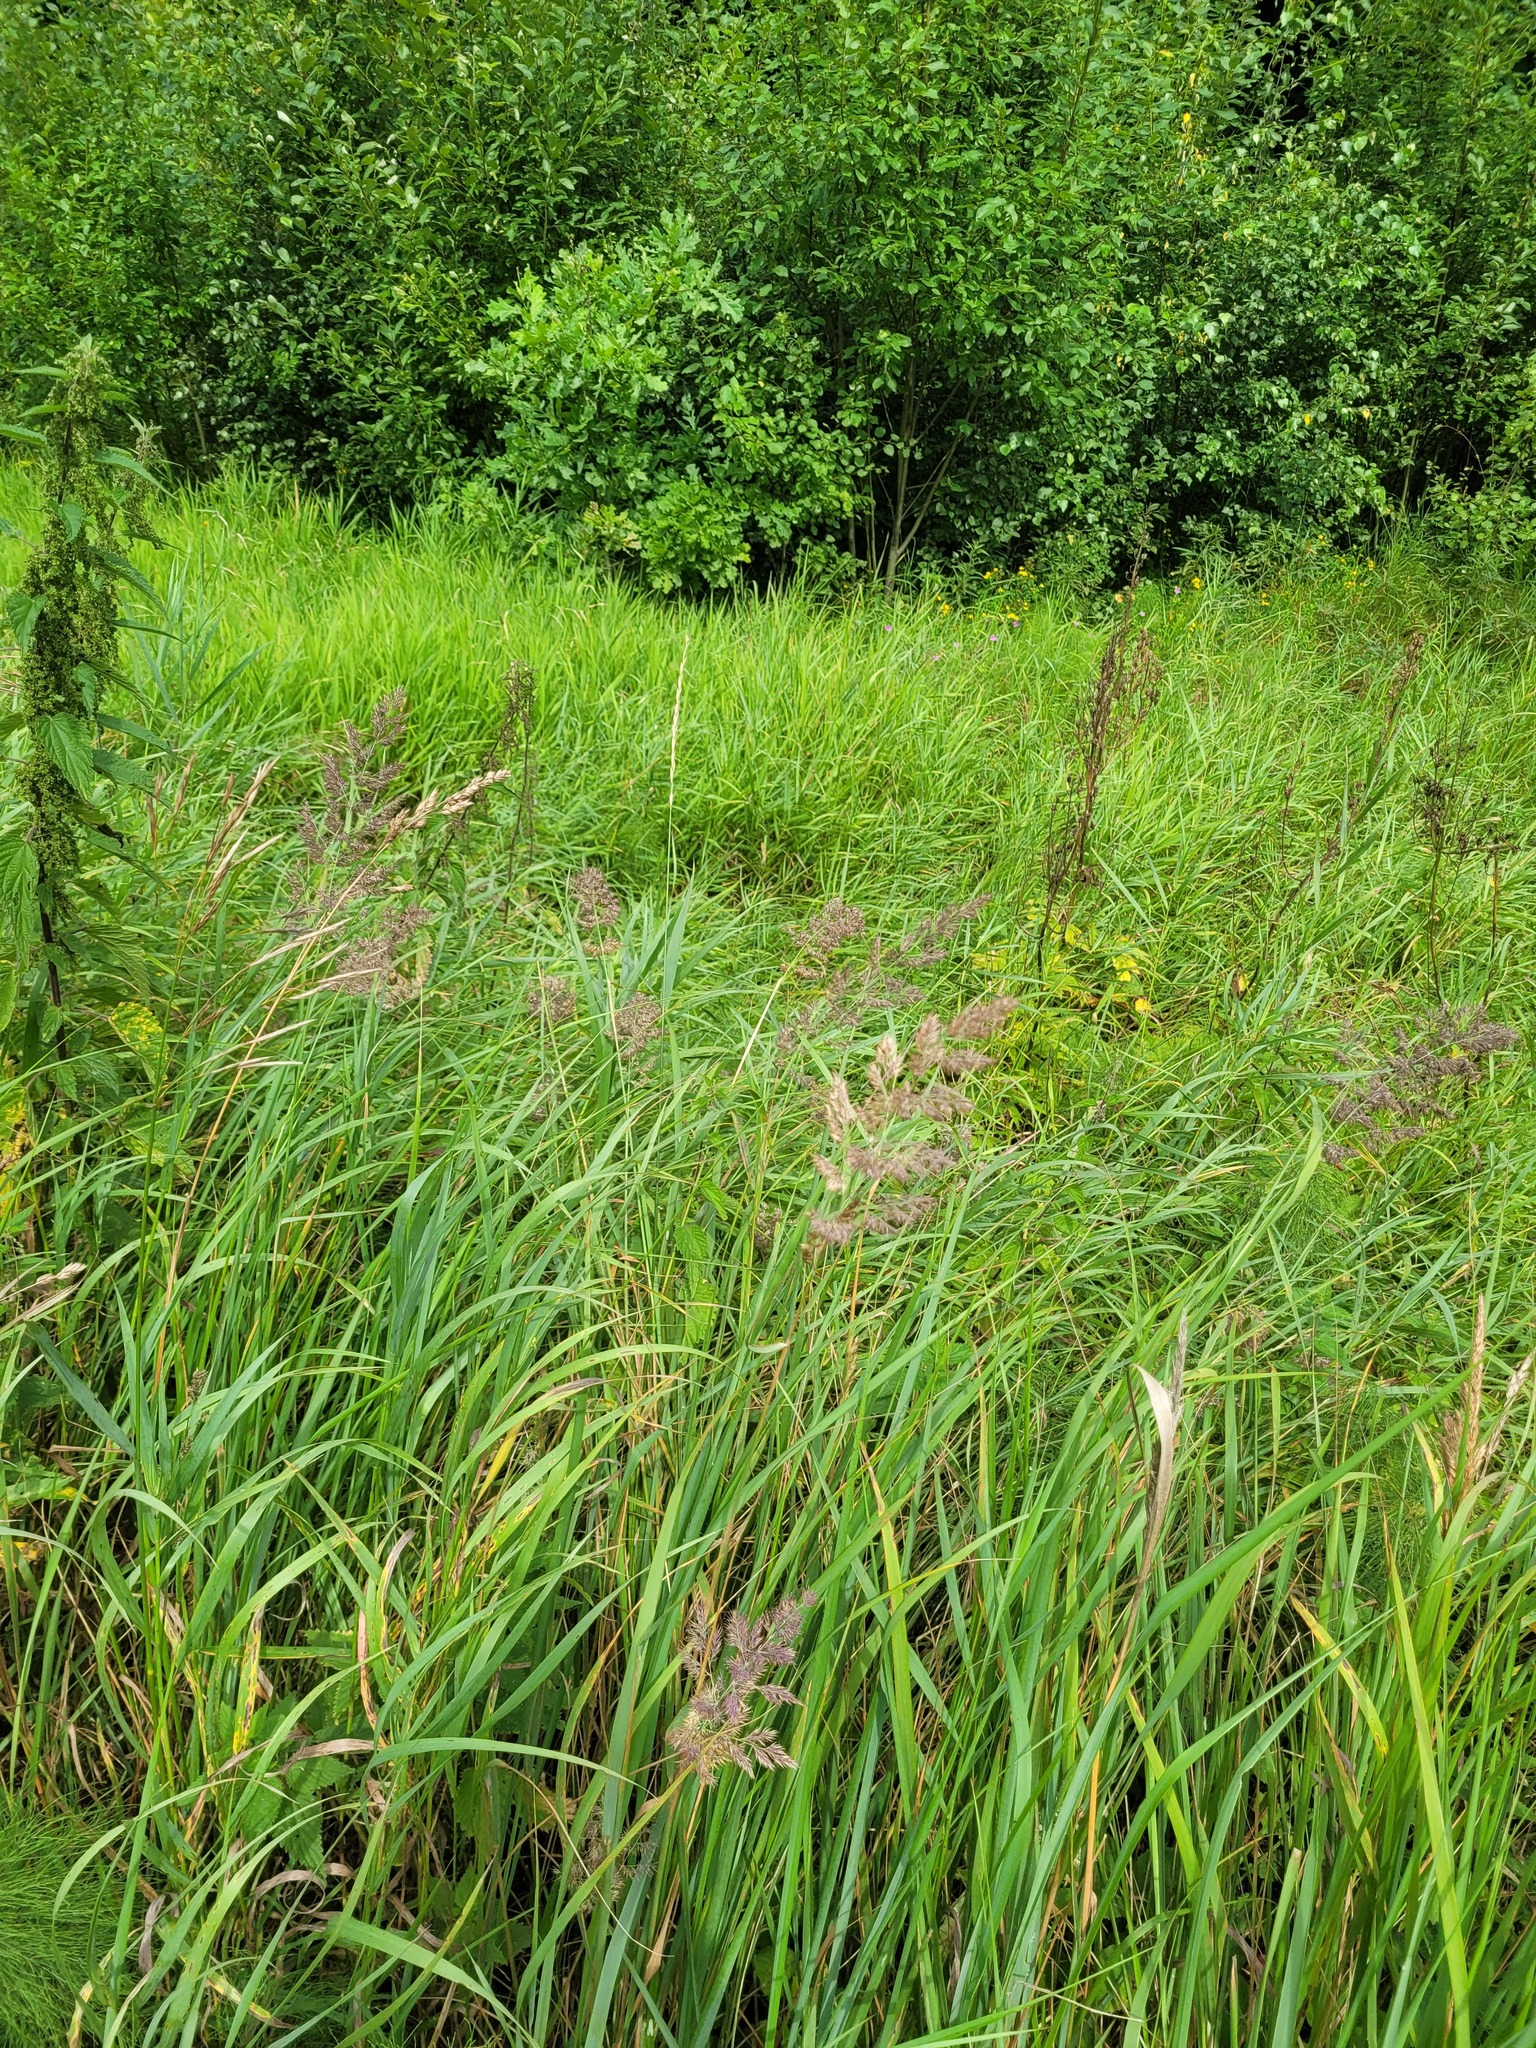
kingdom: Plantae
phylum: Tracheophyta
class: Liliopsida
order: Poales
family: Poaceae
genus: Calamagrostis
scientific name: Calamagrostis epigejos
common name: Wood small-reed
